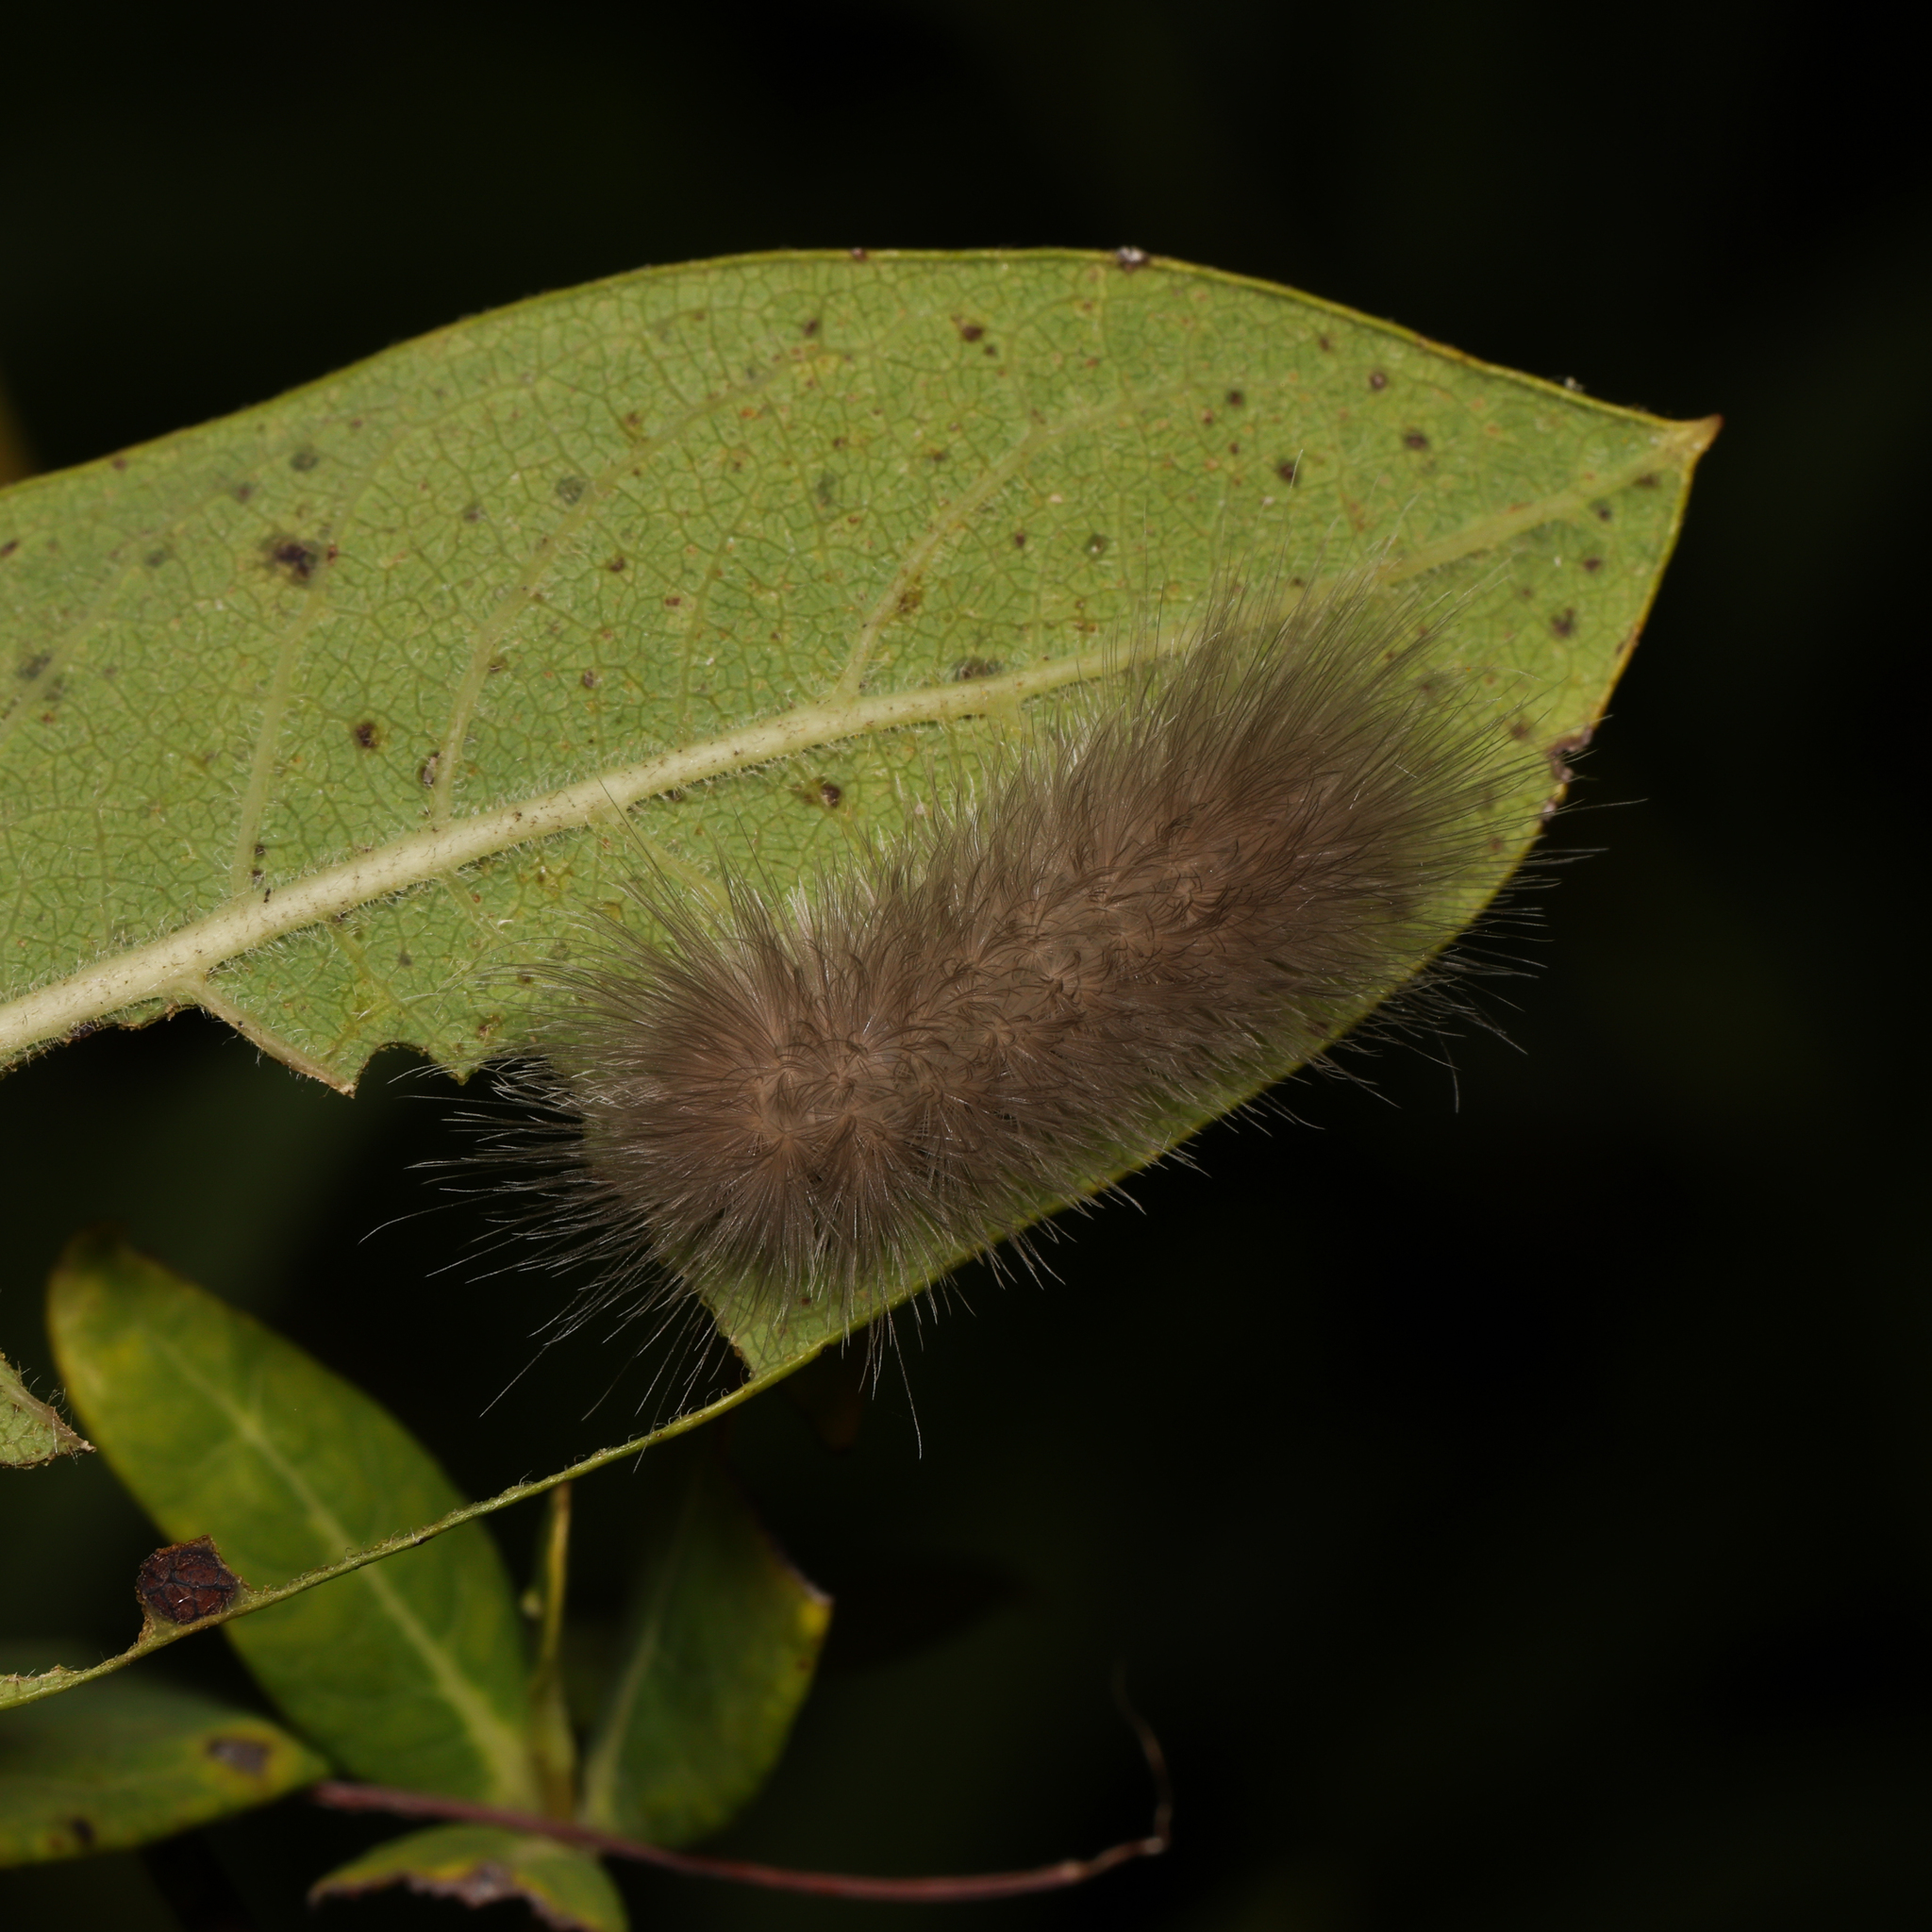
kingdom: Animalia
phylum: Arthropoda
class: Insecta
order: Lepidoptera
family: Erebidae
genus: Cycnia
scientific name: Cycnia tenera
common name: Delicate cycnia moth
